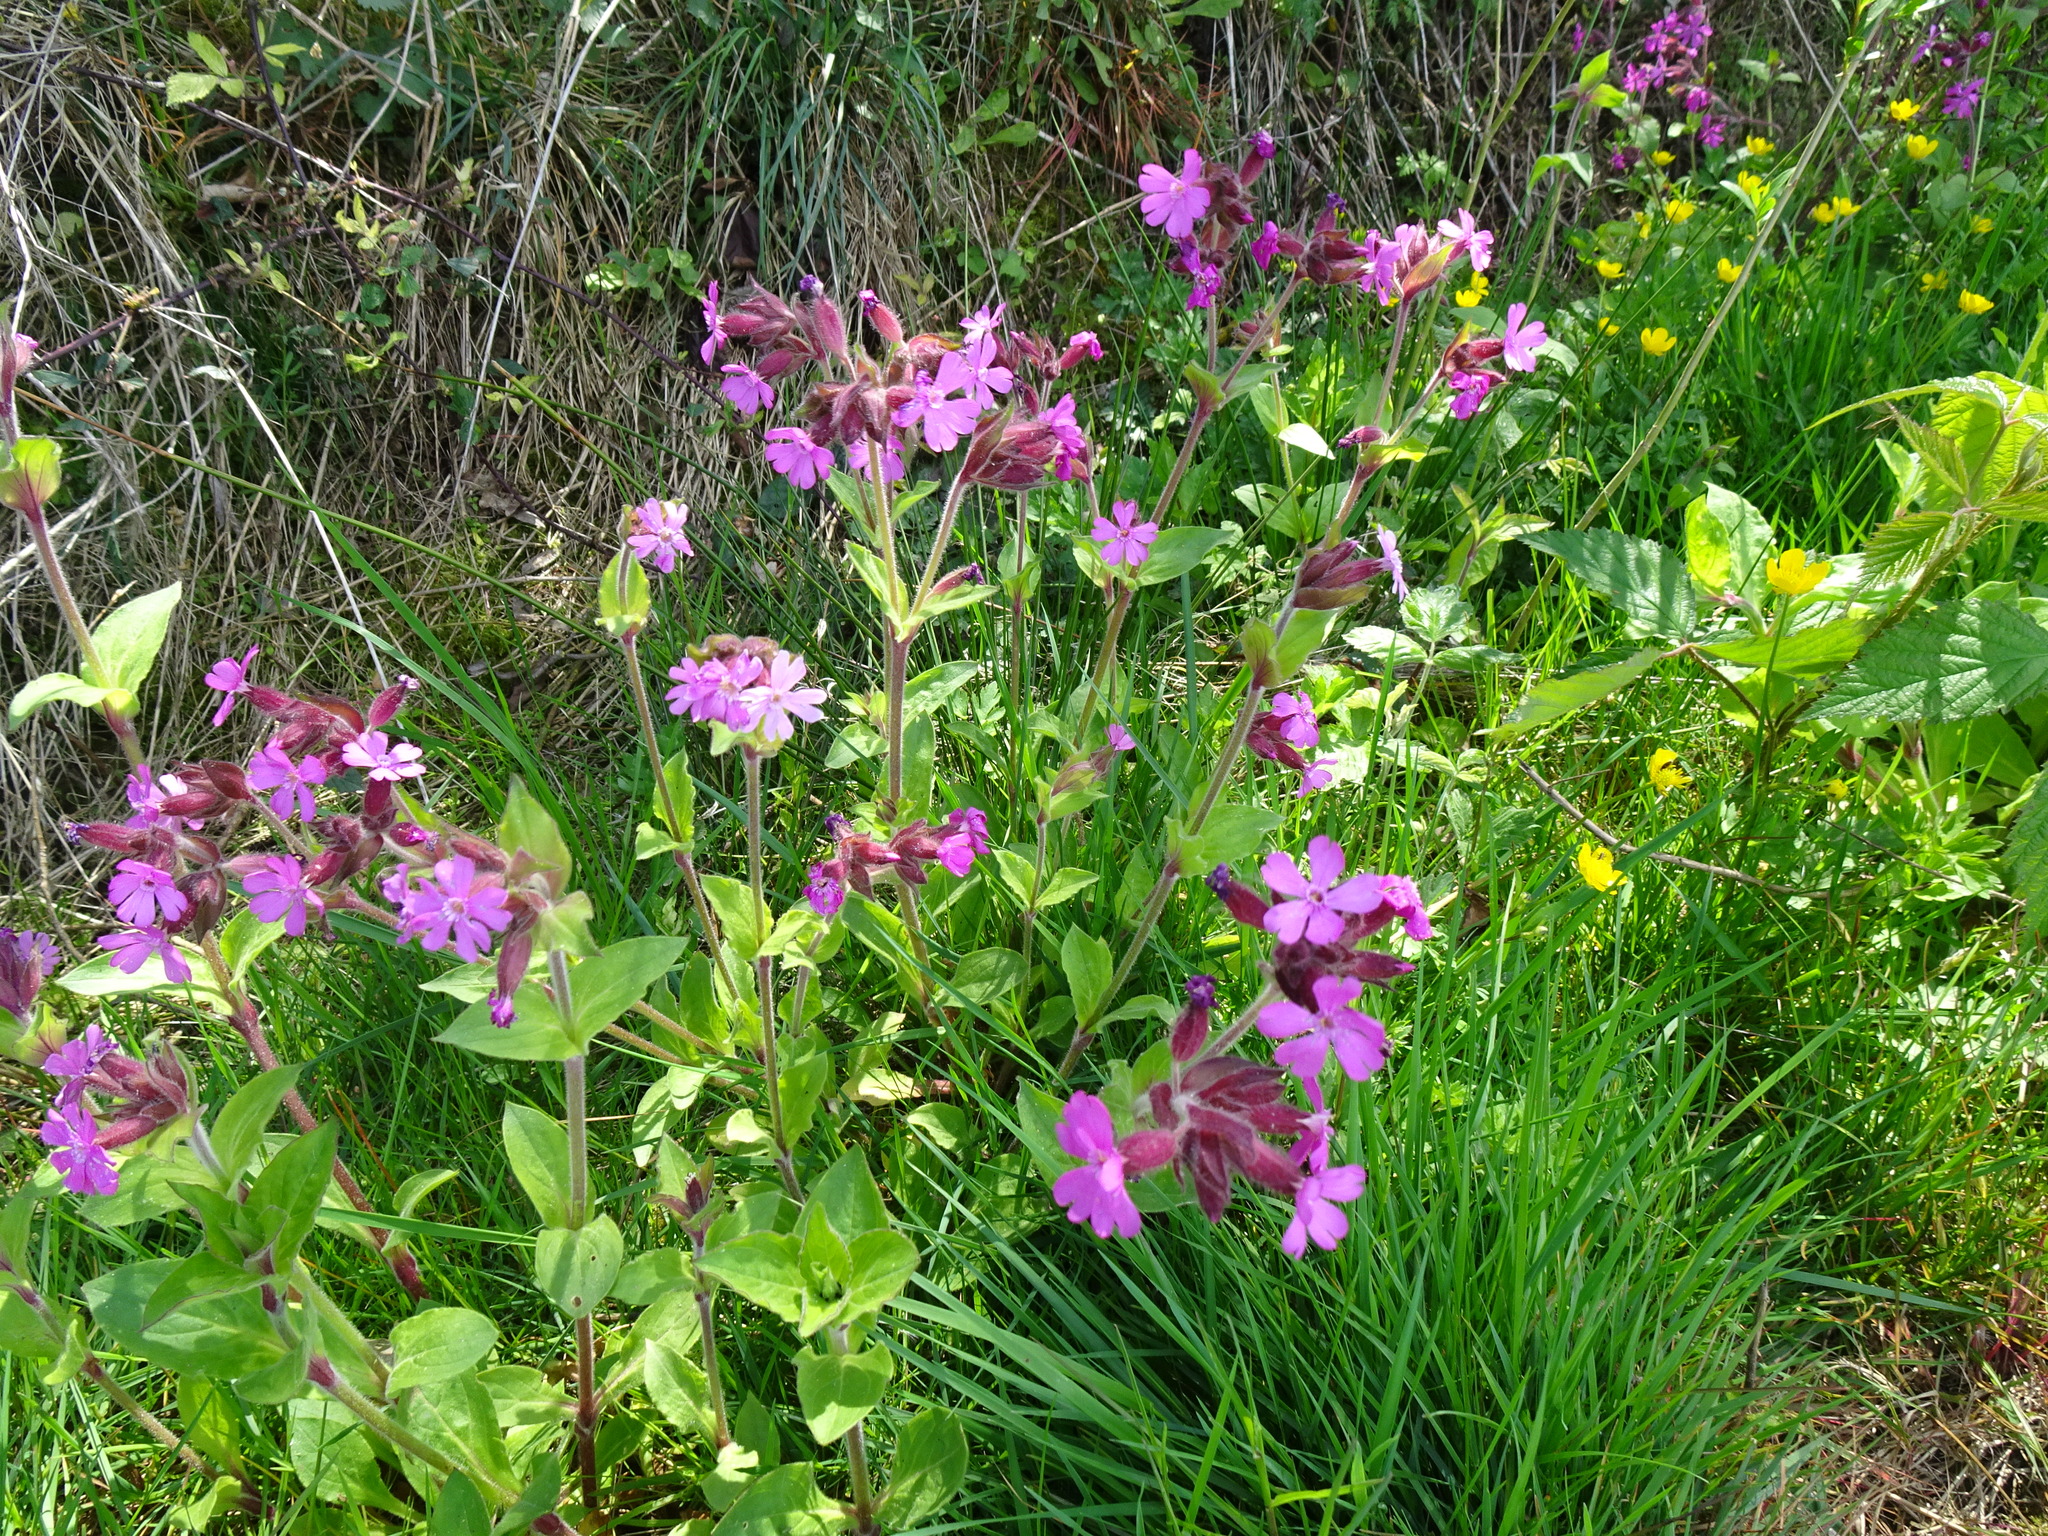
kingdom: Plantae
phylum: Tracheophyta
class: Magnoliopsida
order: Caryophyllales
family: Caryophyllaceae
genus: Silene
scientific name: Silene dioica
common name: Red campion
